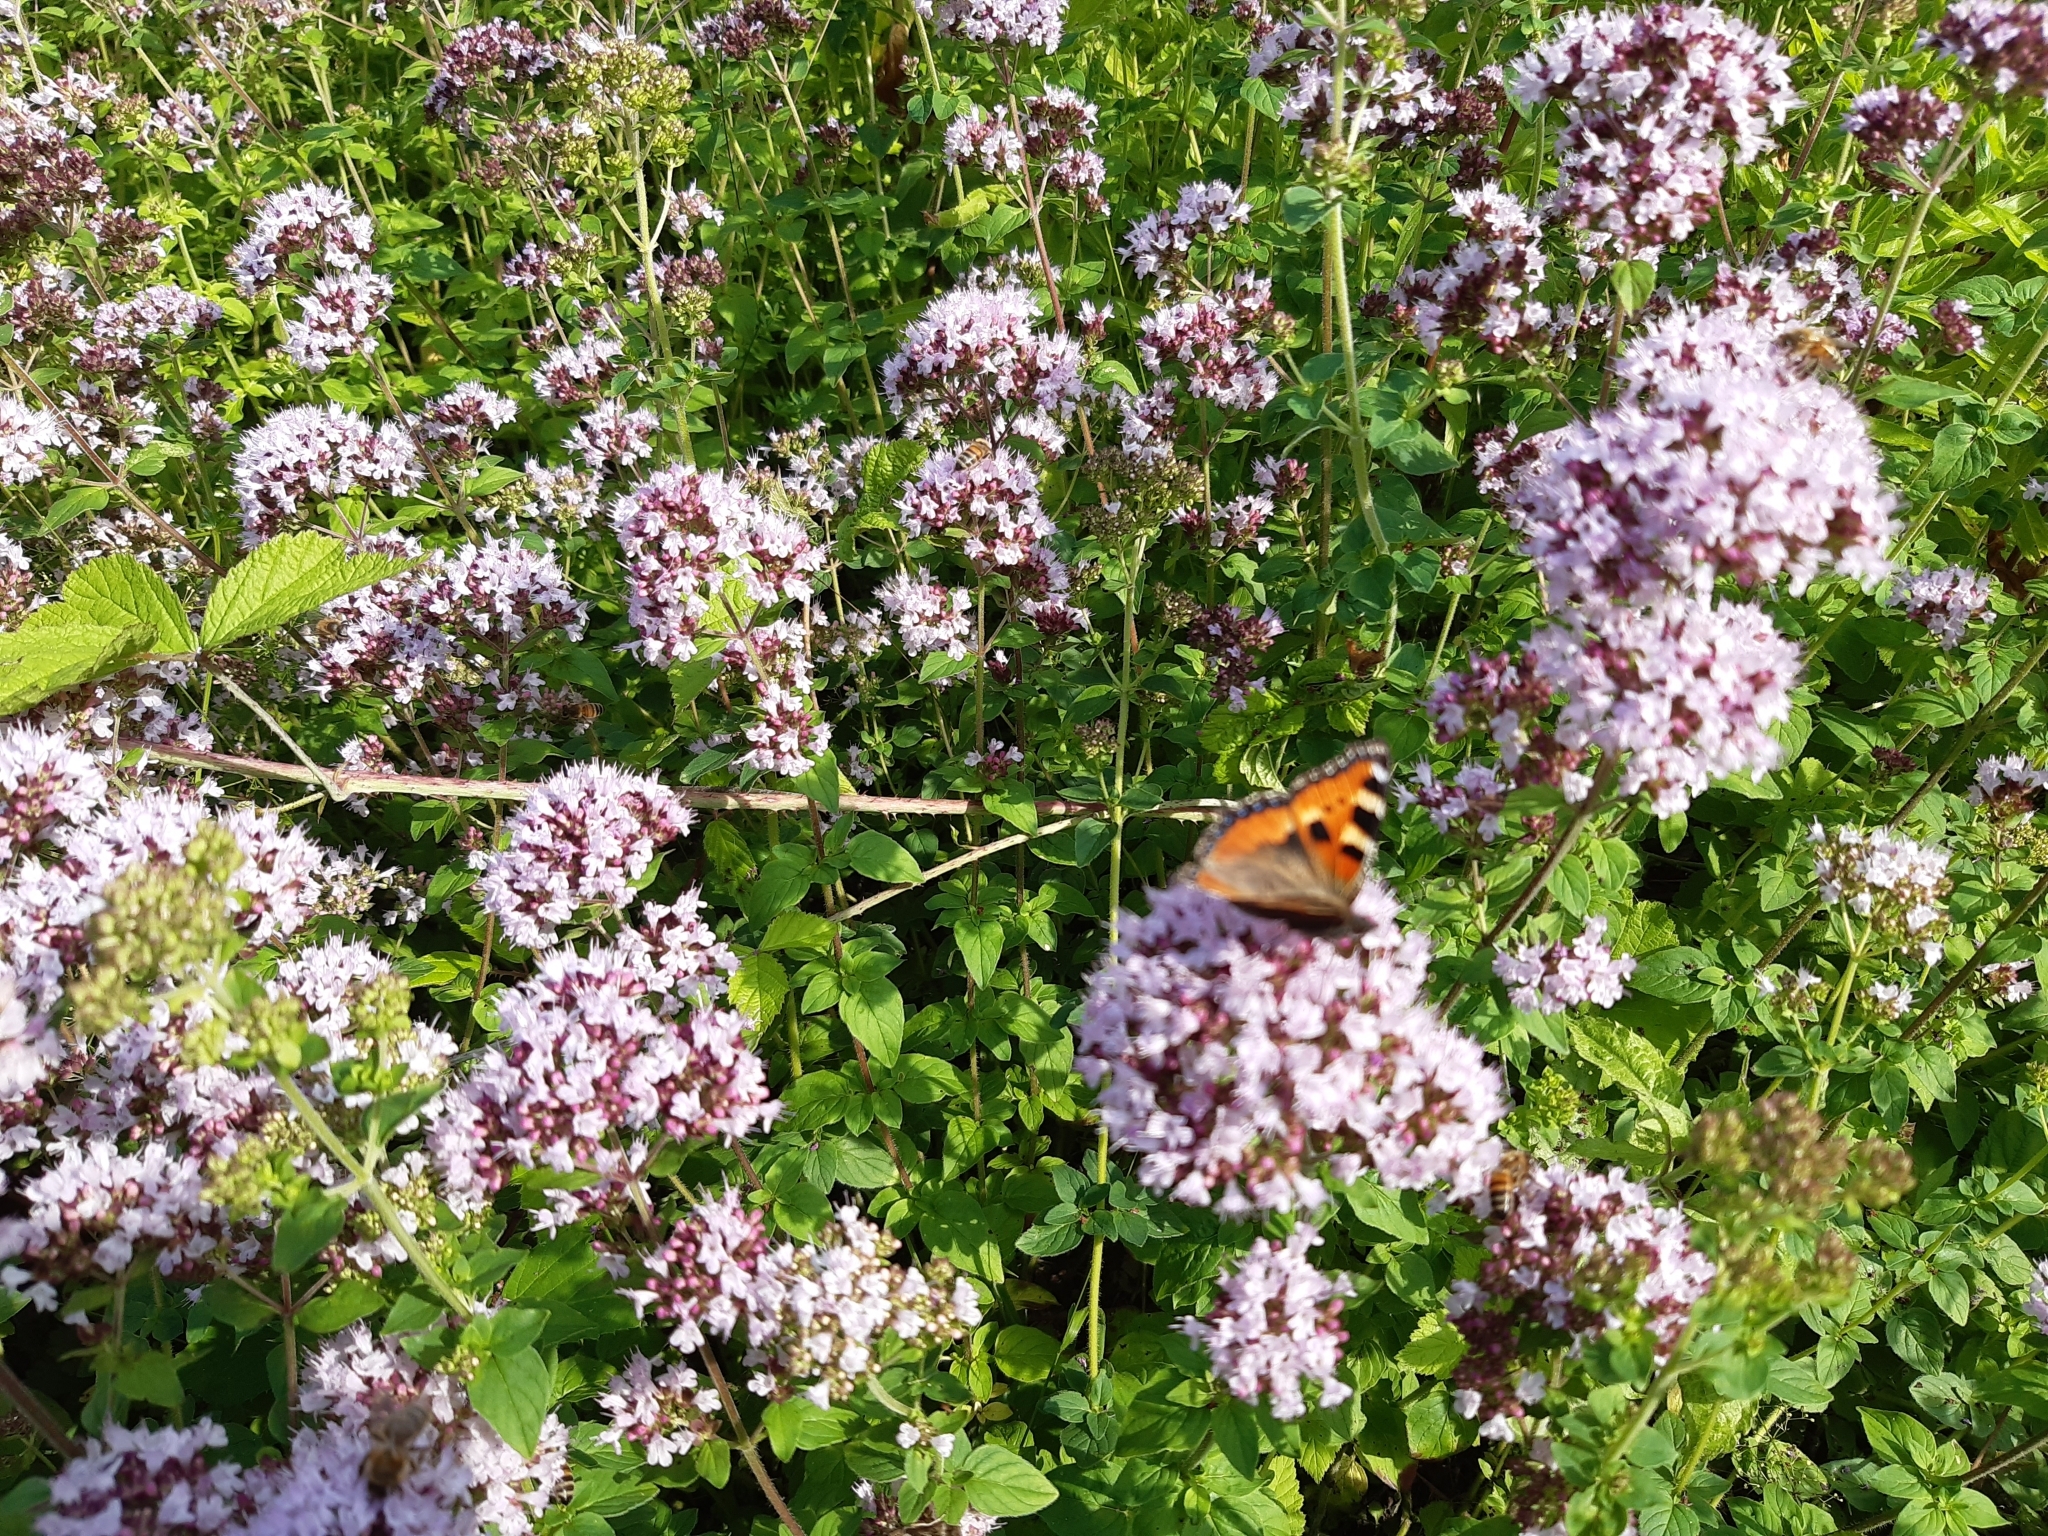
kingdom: Animalia
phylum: Arthropoda
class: Insecta
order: Lepidoptera
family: Nymphalidae
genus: Aglais
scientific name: Aglais urticae
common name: Small tortoiseshell
